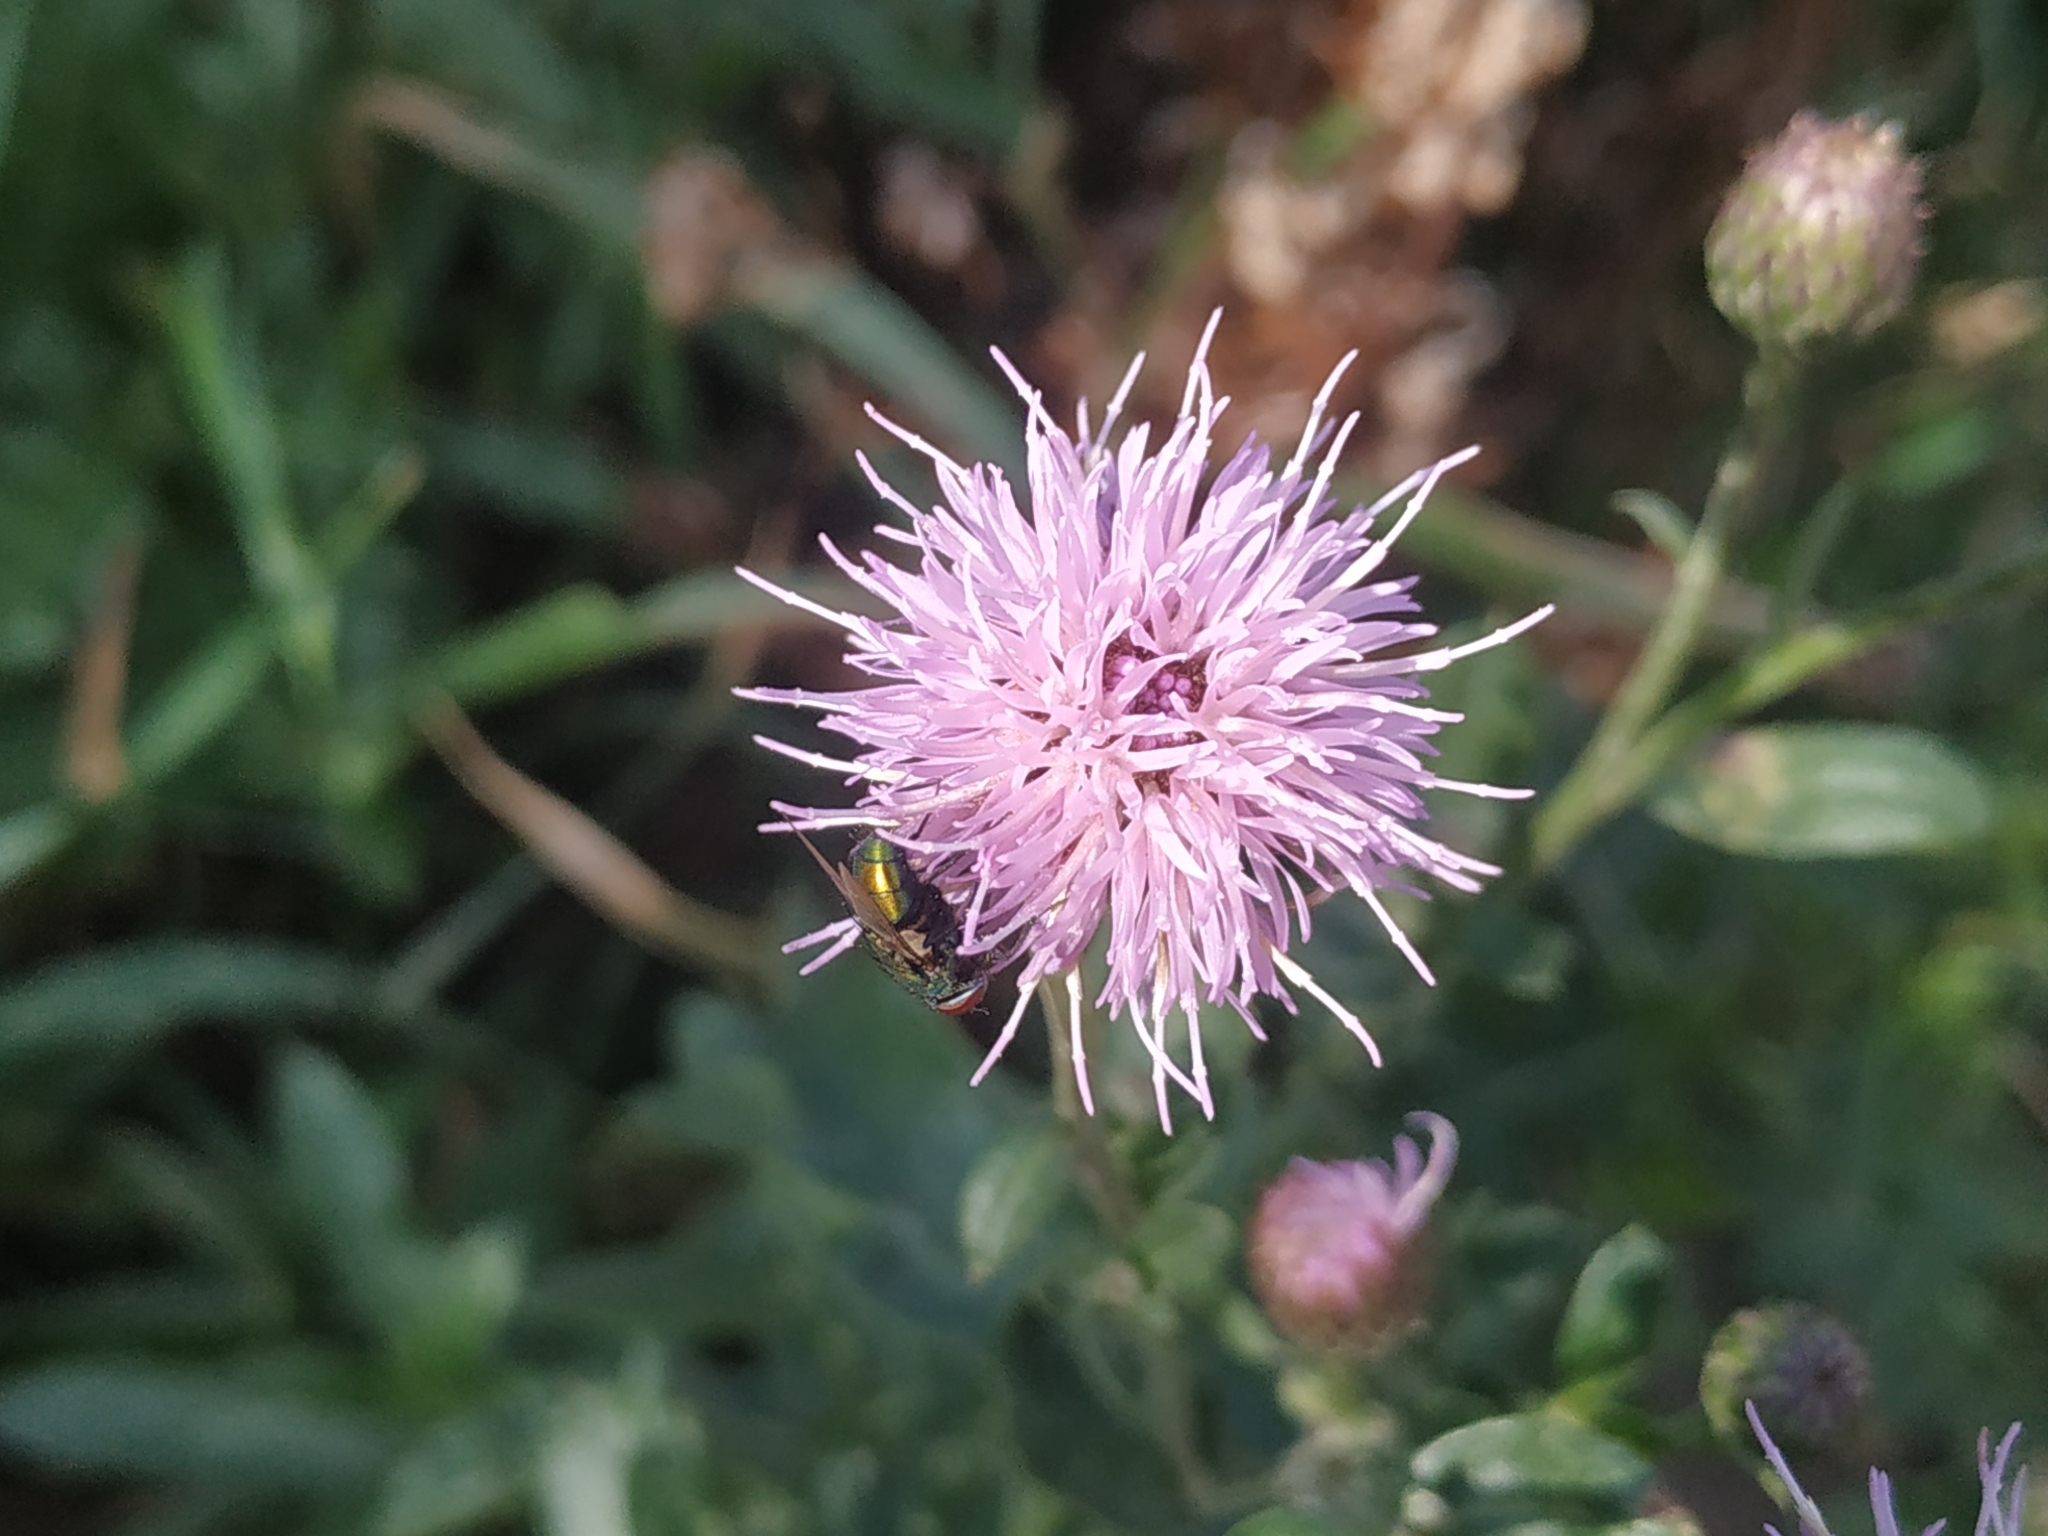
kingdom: Plantae
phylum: Tracheophyta
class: Magnoliopsida
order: Asterales
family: Asteraceae
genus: Cirsium
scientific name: Cirsium arvense
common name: Creeping thistle
